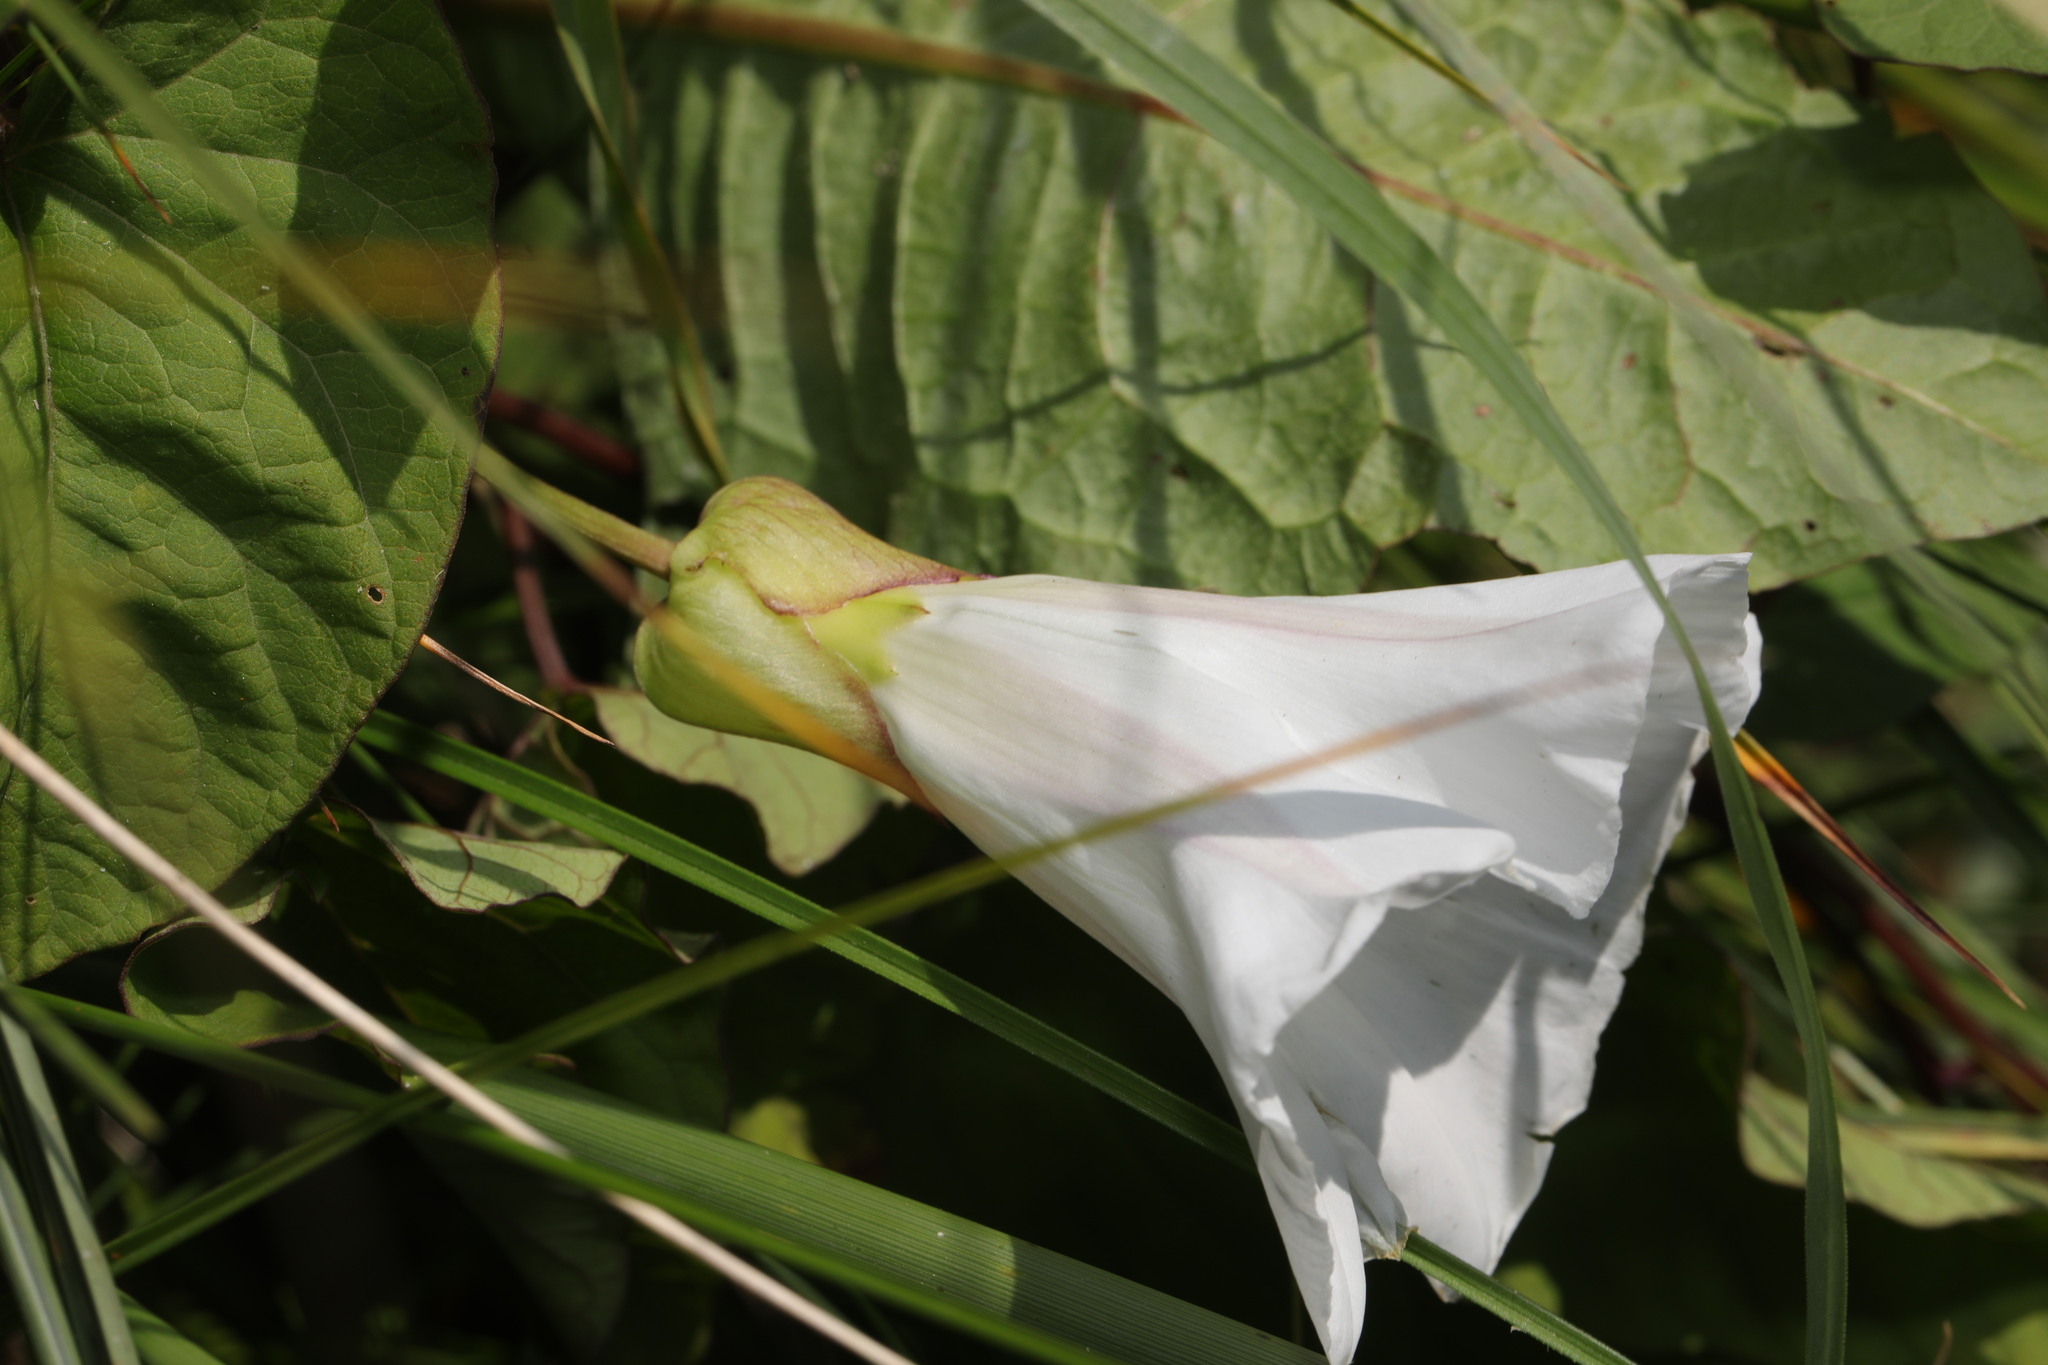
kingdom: Plantae
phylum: Tracheophyta
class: Magnoliopsida
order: Solanales
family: Convolvulaceae
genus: Calystegia
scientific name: Calystegia silvatica
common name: Large bindweed
